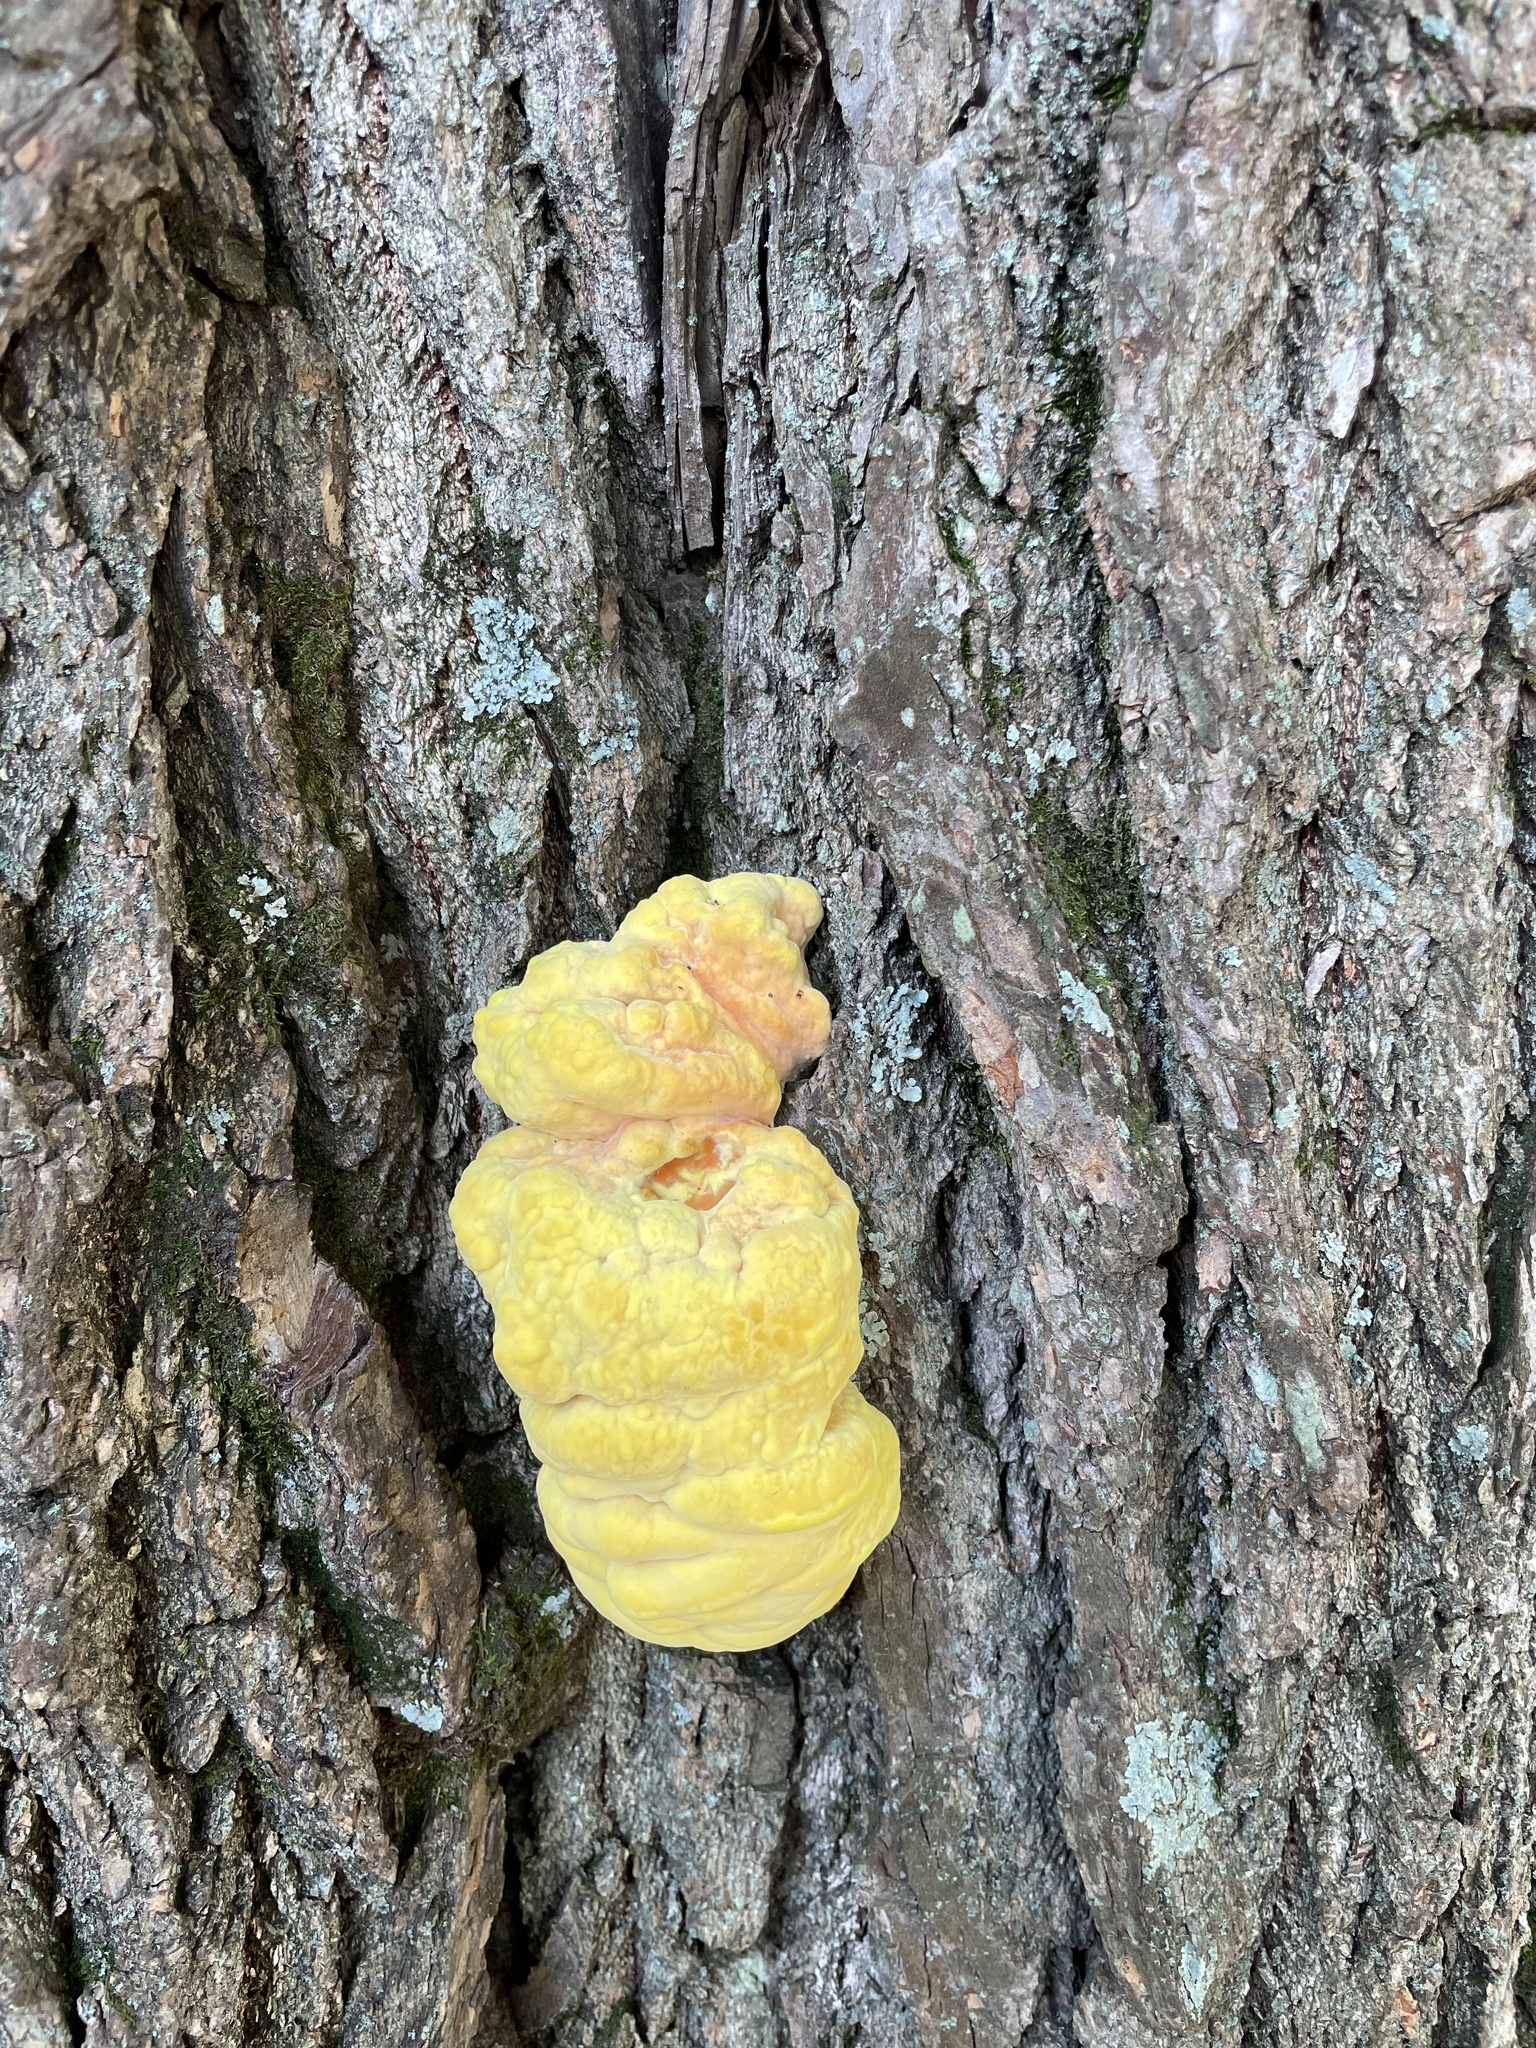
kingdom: Fungi
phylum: Basidiomycota
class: Agaricomycetes
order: Polyporales
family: Laetiporaceae
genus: Laetiporus
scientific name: Laetiporus sulphureus
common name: Chicken of the woods
